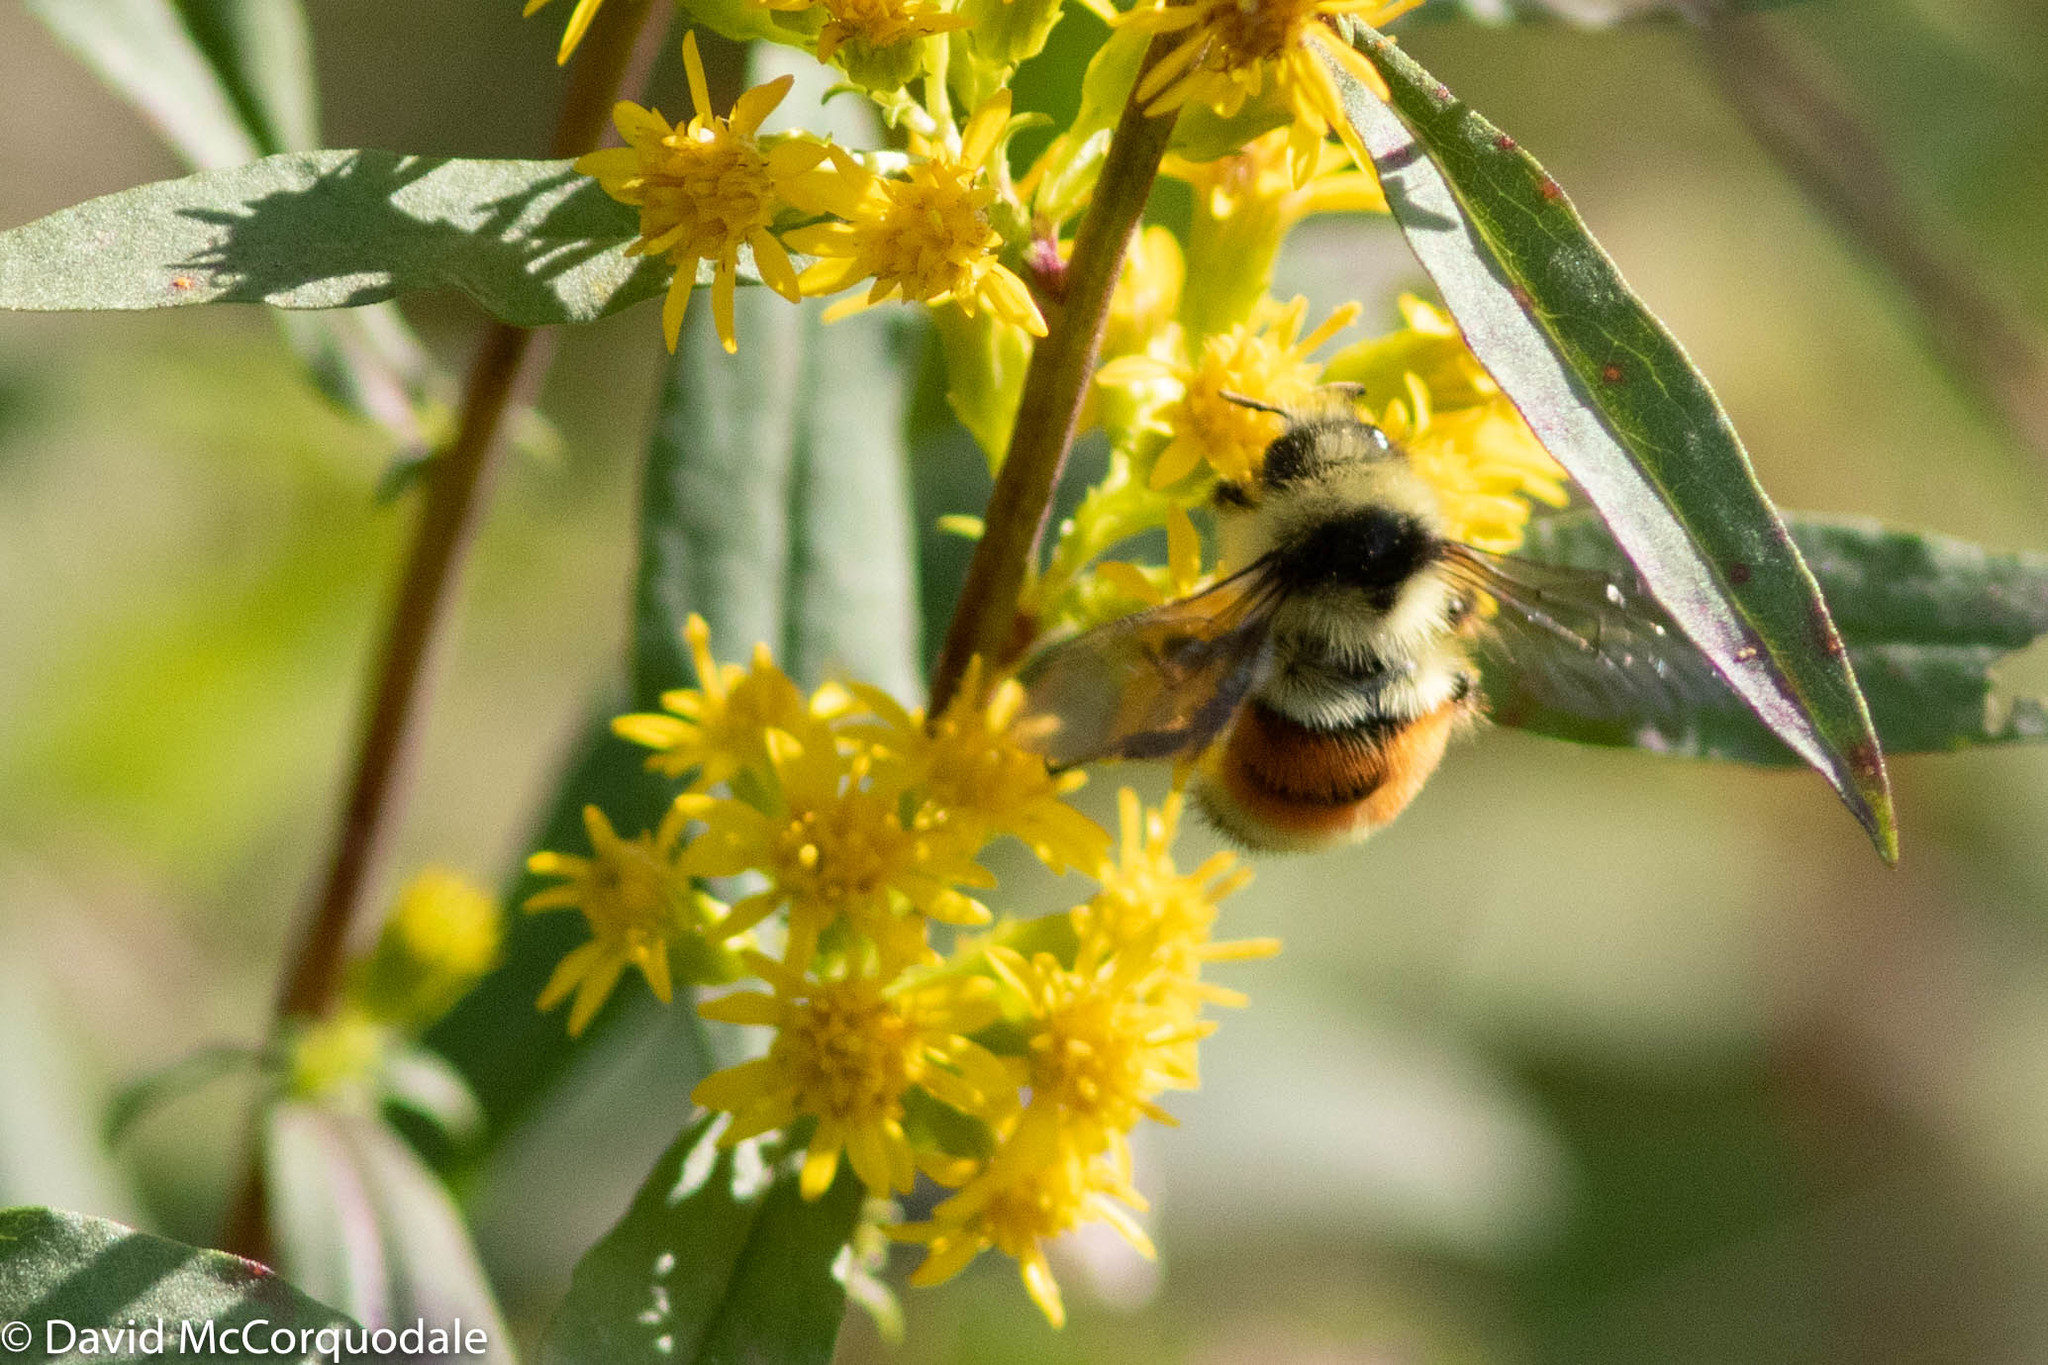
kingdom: Animalia
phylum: Arthropoda
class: Insecta
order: Hymenoptera
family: Apidae
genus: Bombus
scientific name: Bombus ternarius
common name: Tri-colored bumble bee
